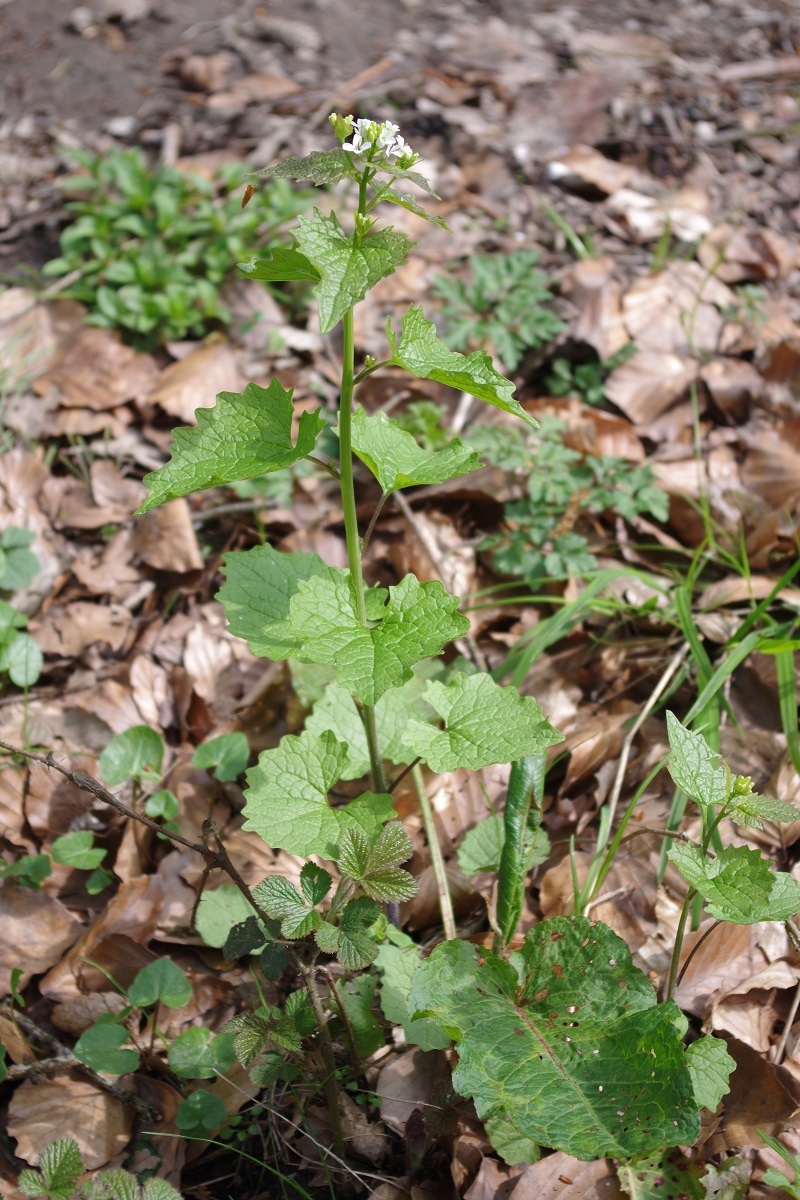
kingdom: Plantae
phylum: Tracheophyta
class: Magnoliopsida
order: Brassicales
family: Brassicaceae
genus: Alliaria
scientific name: Alliaria petiolata
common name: Garlic mustard
